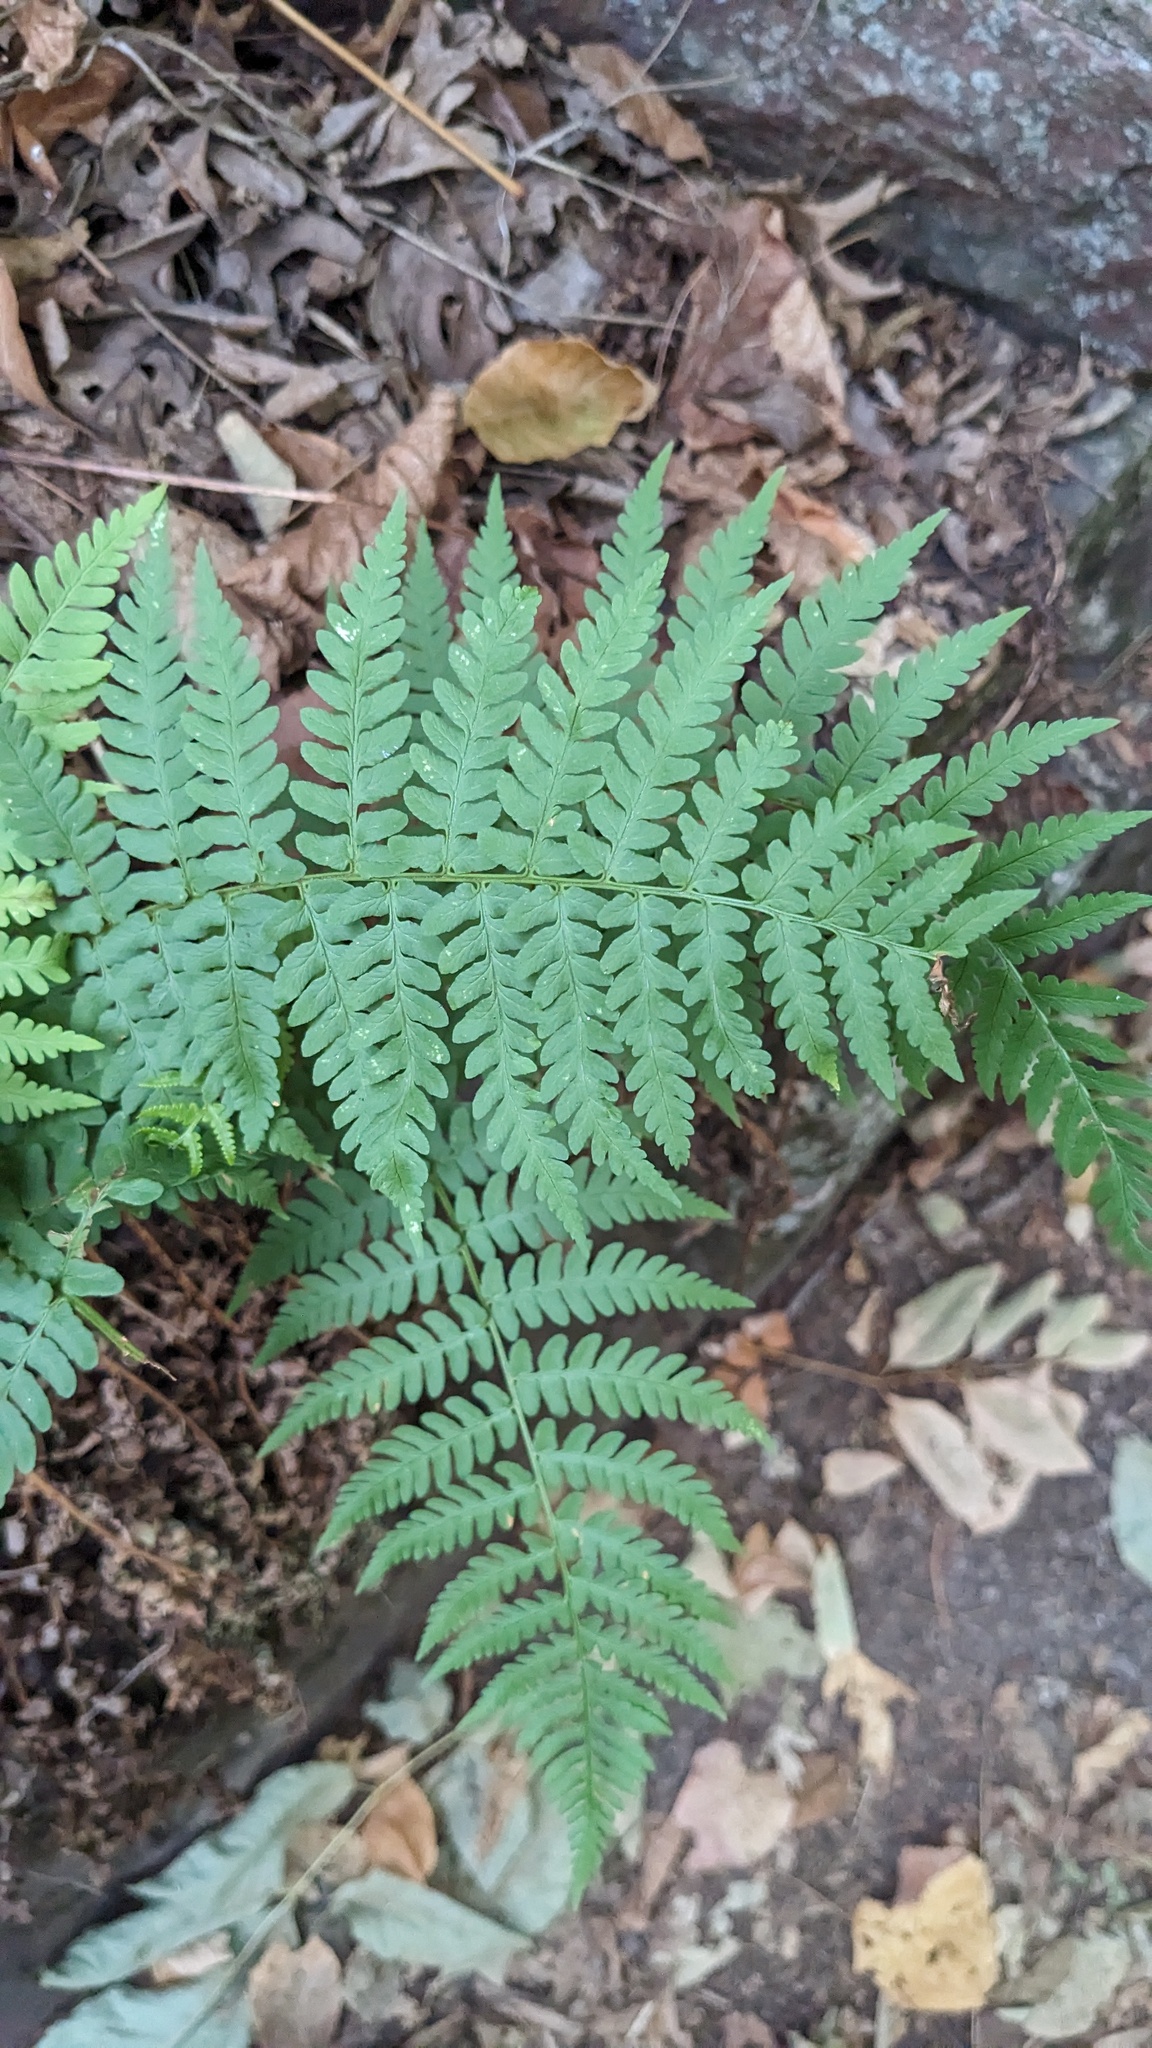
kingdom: Plantae
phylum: Tracheophyta
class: Polypodiopsida
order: Polypodiales
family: Dryopteridaceae
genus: Dryopteris
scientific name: Dryopteris marginalis
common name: Marginal wood fern
